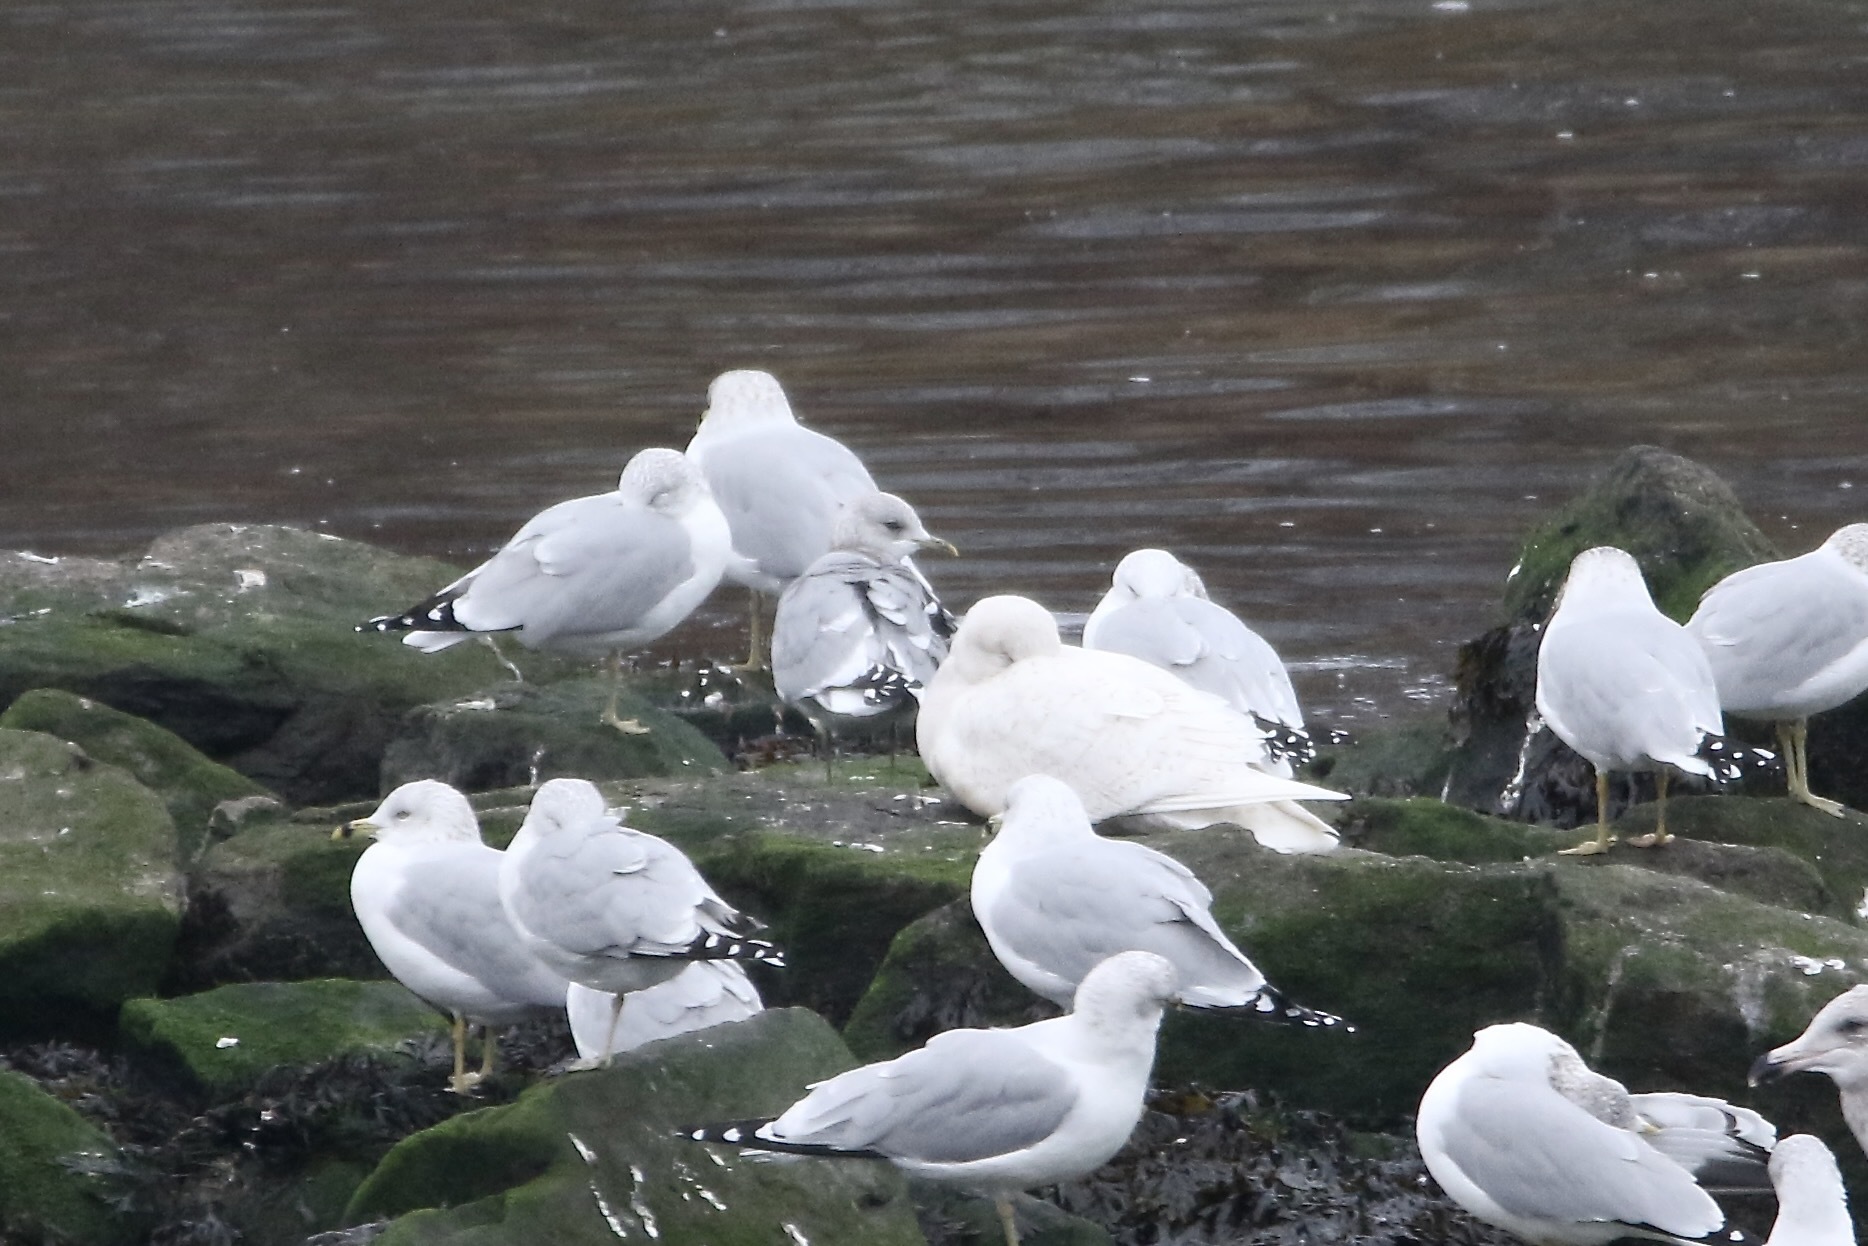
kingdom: Animalia
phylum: Chordata
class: Aves
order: Charadriiformes
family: Laridae
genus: Larus
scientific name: Larus hyperboreus
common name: Glaucous gull
